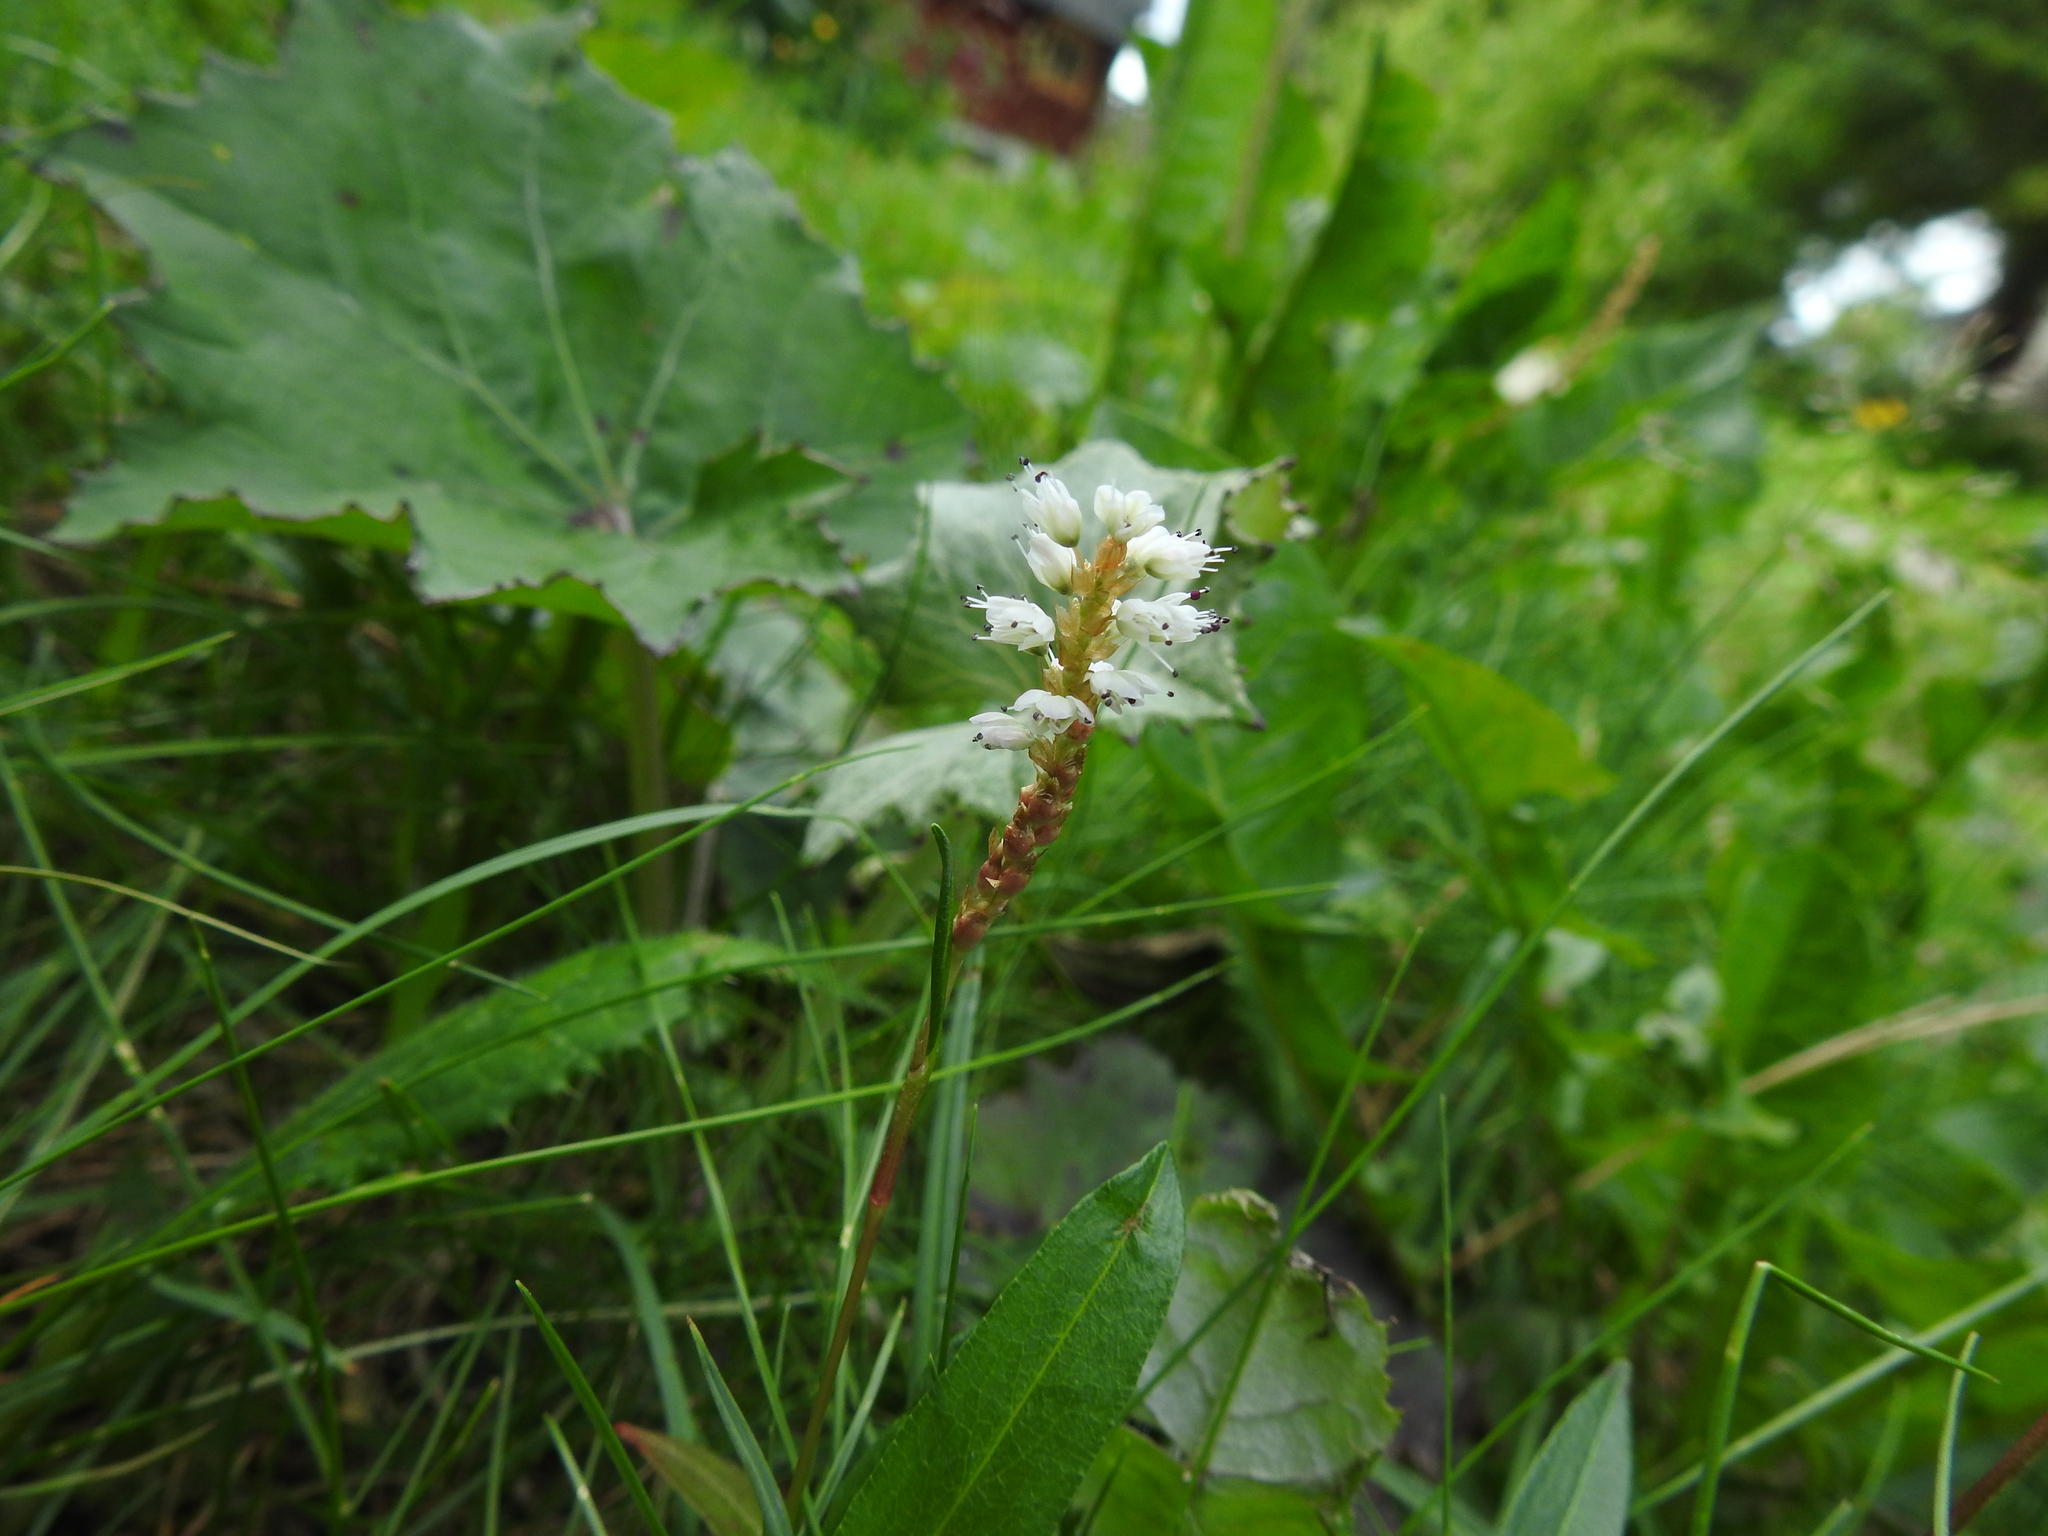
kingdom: Plantae
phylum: Tracheophyta
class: Magnoliopsida
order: Caryophyllales
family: Polygonaceae
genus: Bistorta
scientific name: Bistorta vivipara
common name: Alpine bistort
